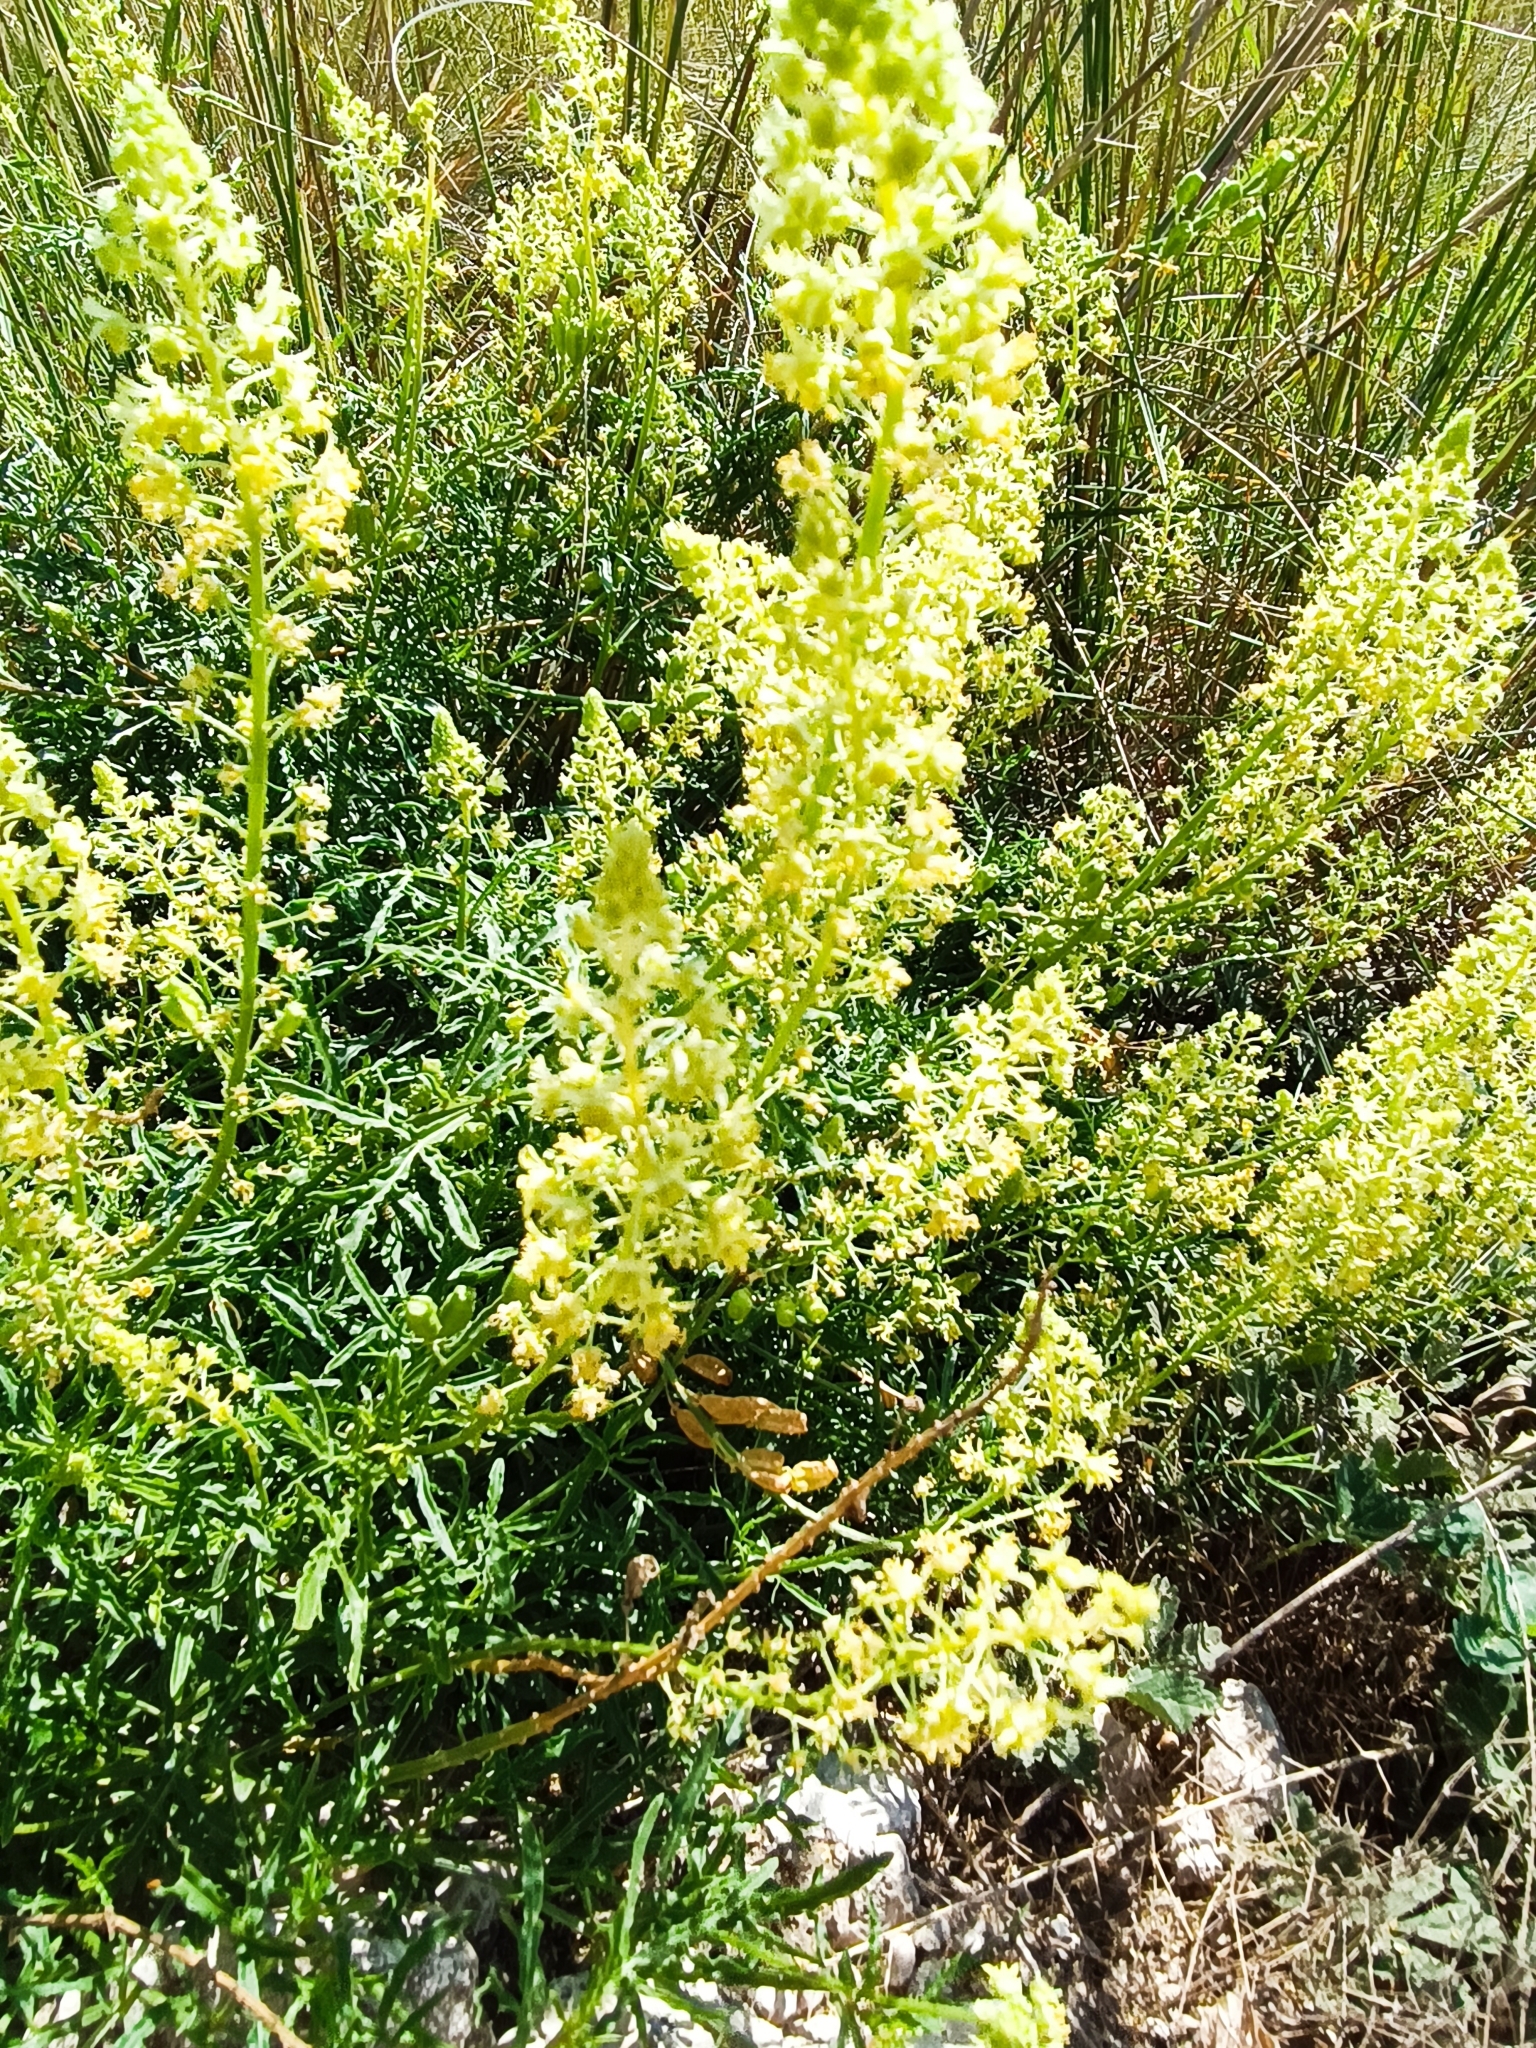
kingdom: Plantae
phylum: Tracheophyta
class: Magnoliopsida
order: Brassicales
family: Resedaceae
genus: Reseda
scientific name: Reseda lutea
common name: Wild mignonette
